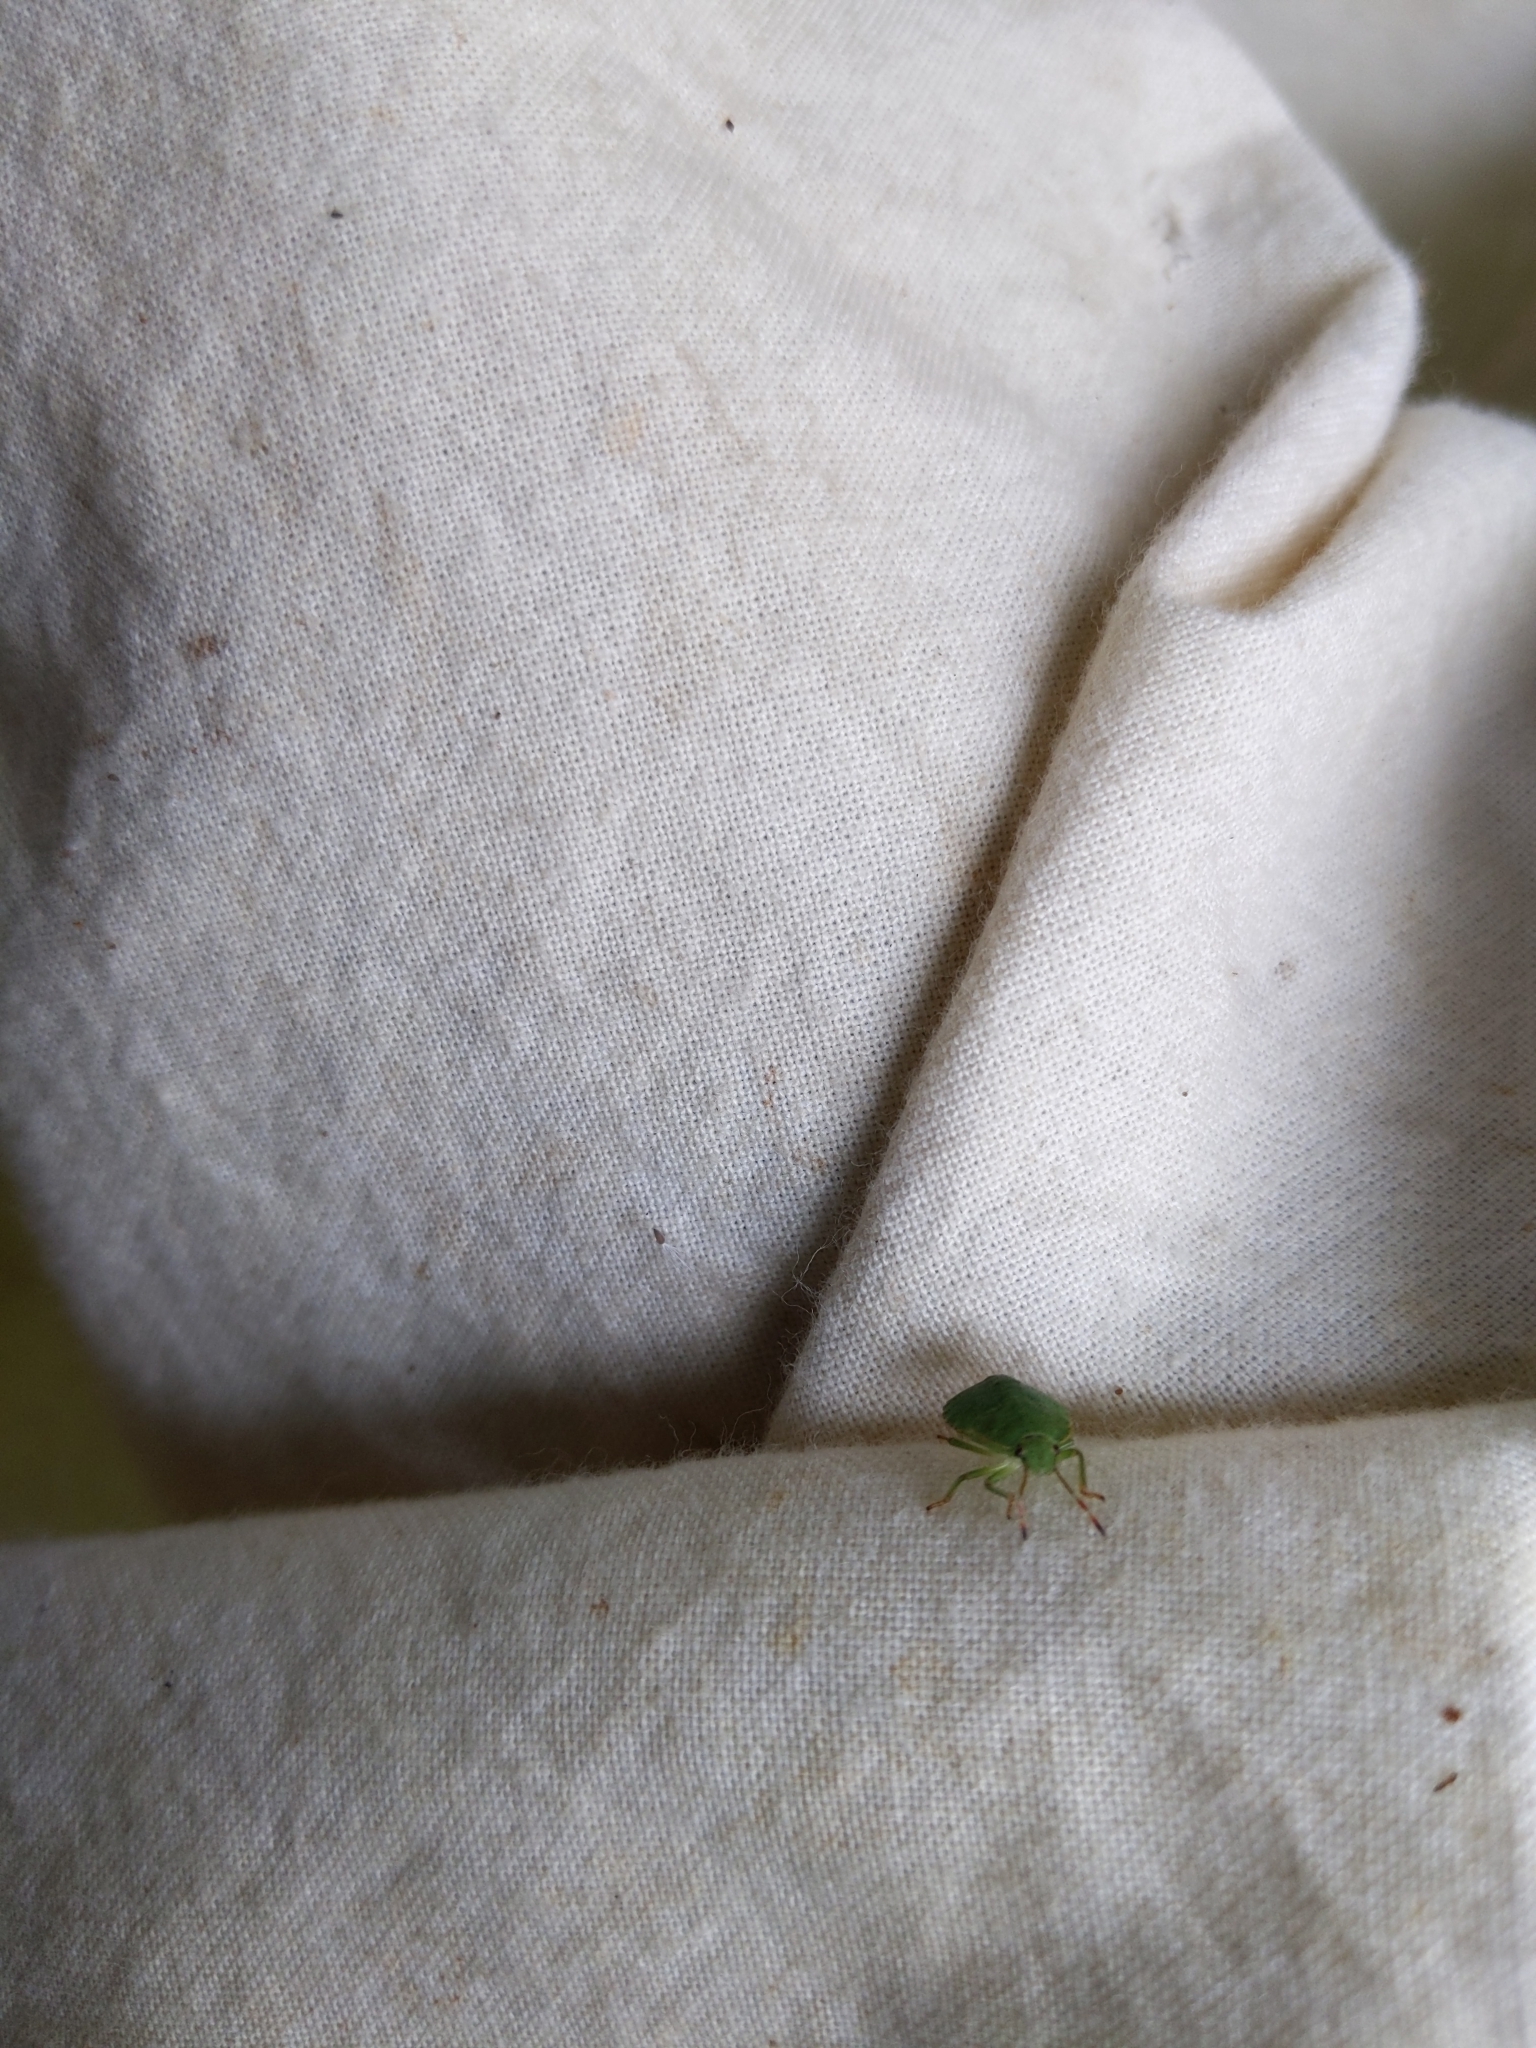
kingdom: Animalia
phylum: Arthropoda
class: Insecta
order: Hemiptera
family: Pentatomidae
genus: Palomena
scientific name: Palomena prasina
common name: Green shieldbug
